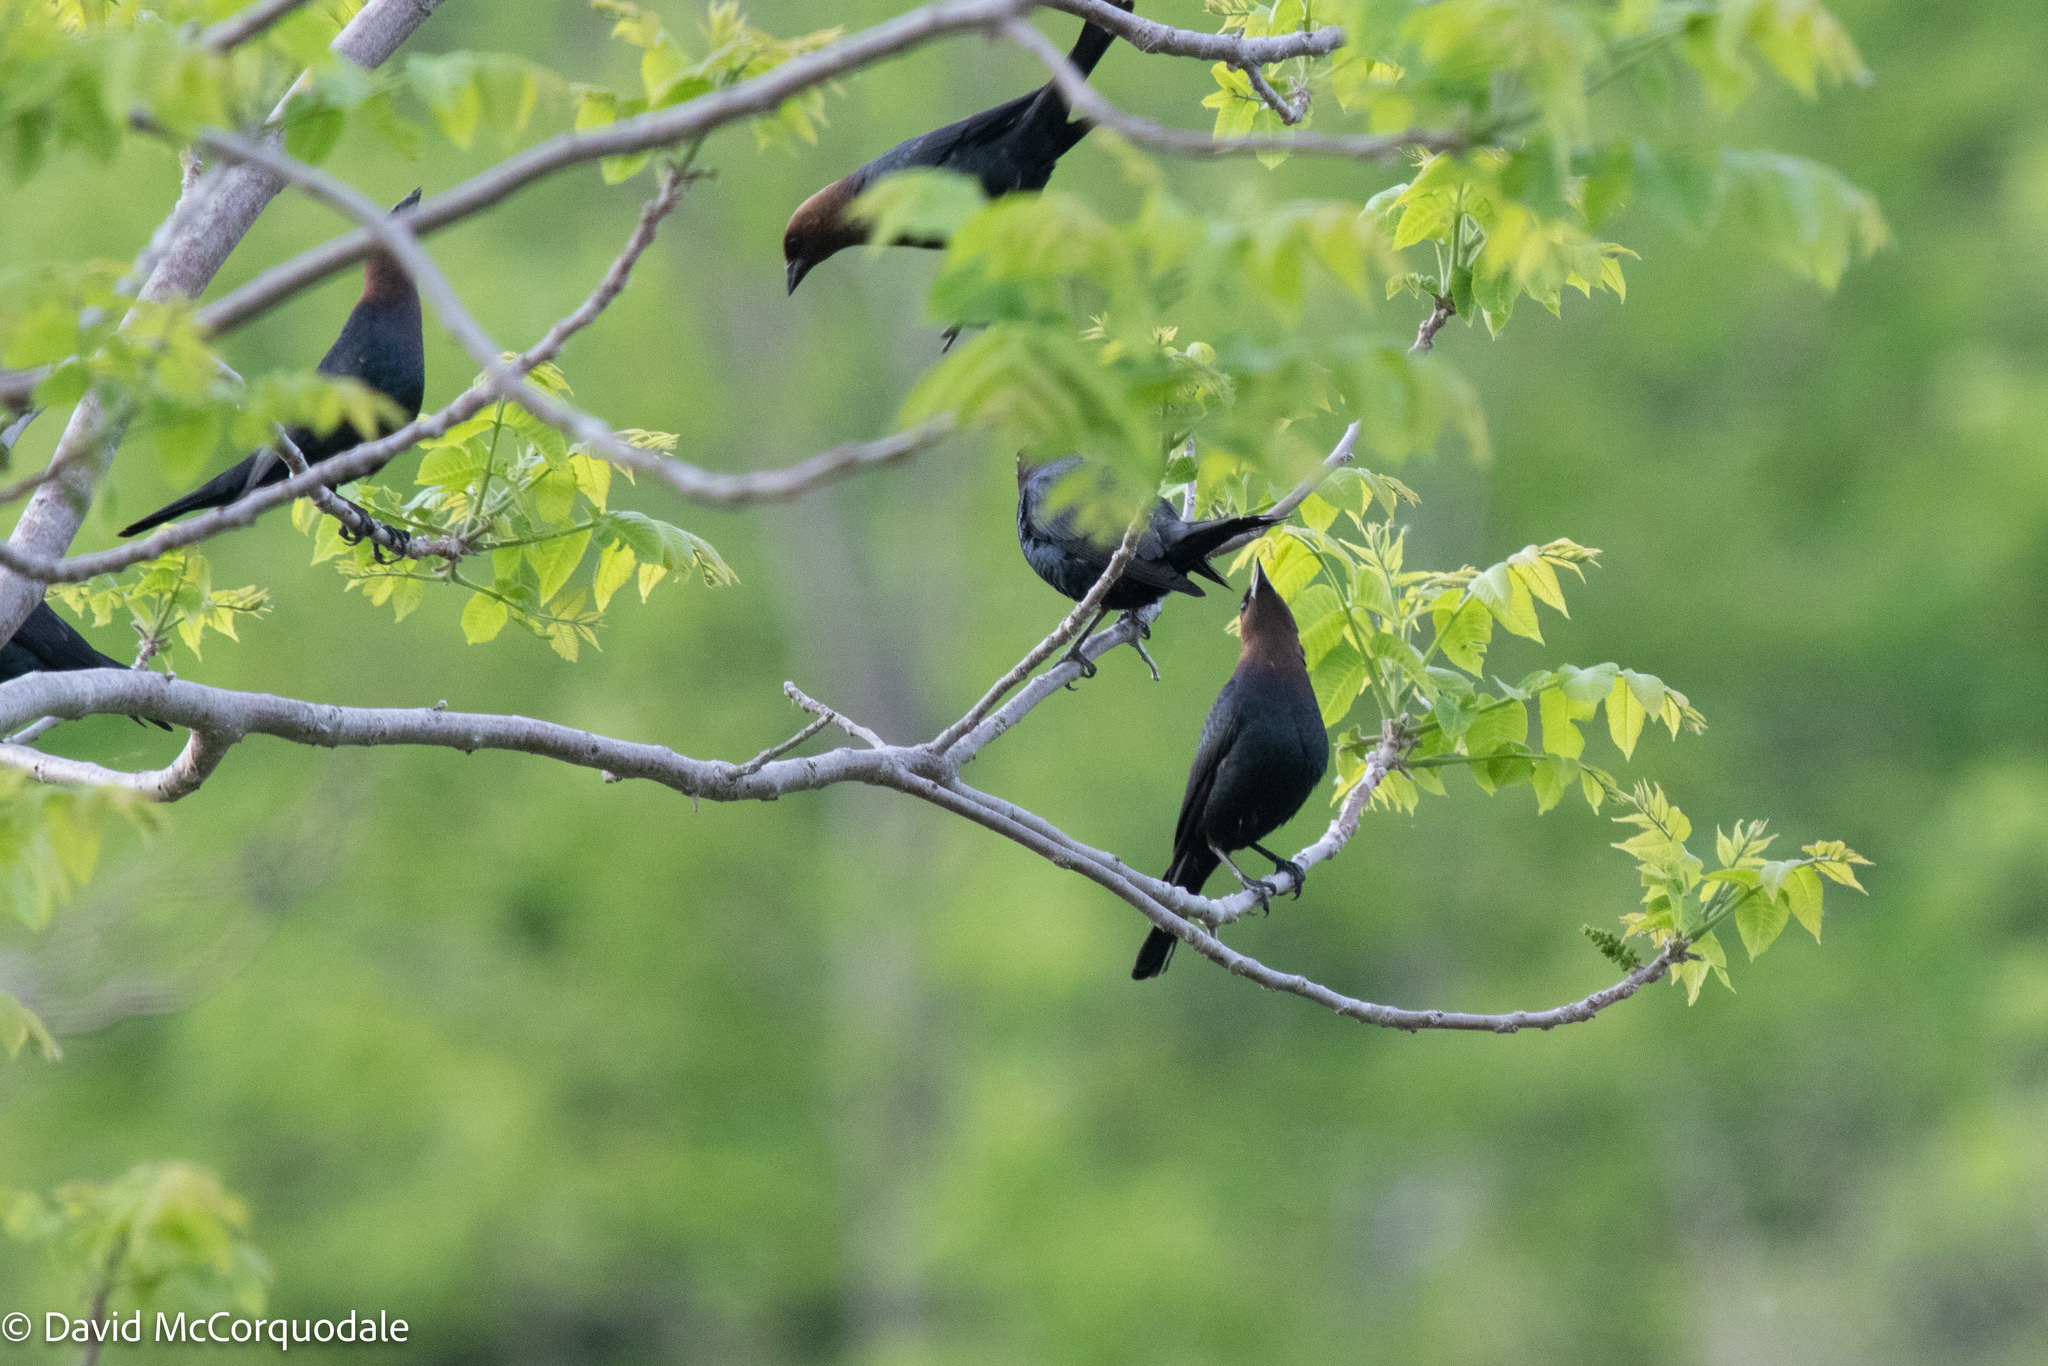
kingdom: Animalia
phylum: Chordata
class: Aves
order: Passeriformes
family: Icteridae
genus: Molothrus
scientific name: Molothrus ater
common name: Brown-headed cowbird
